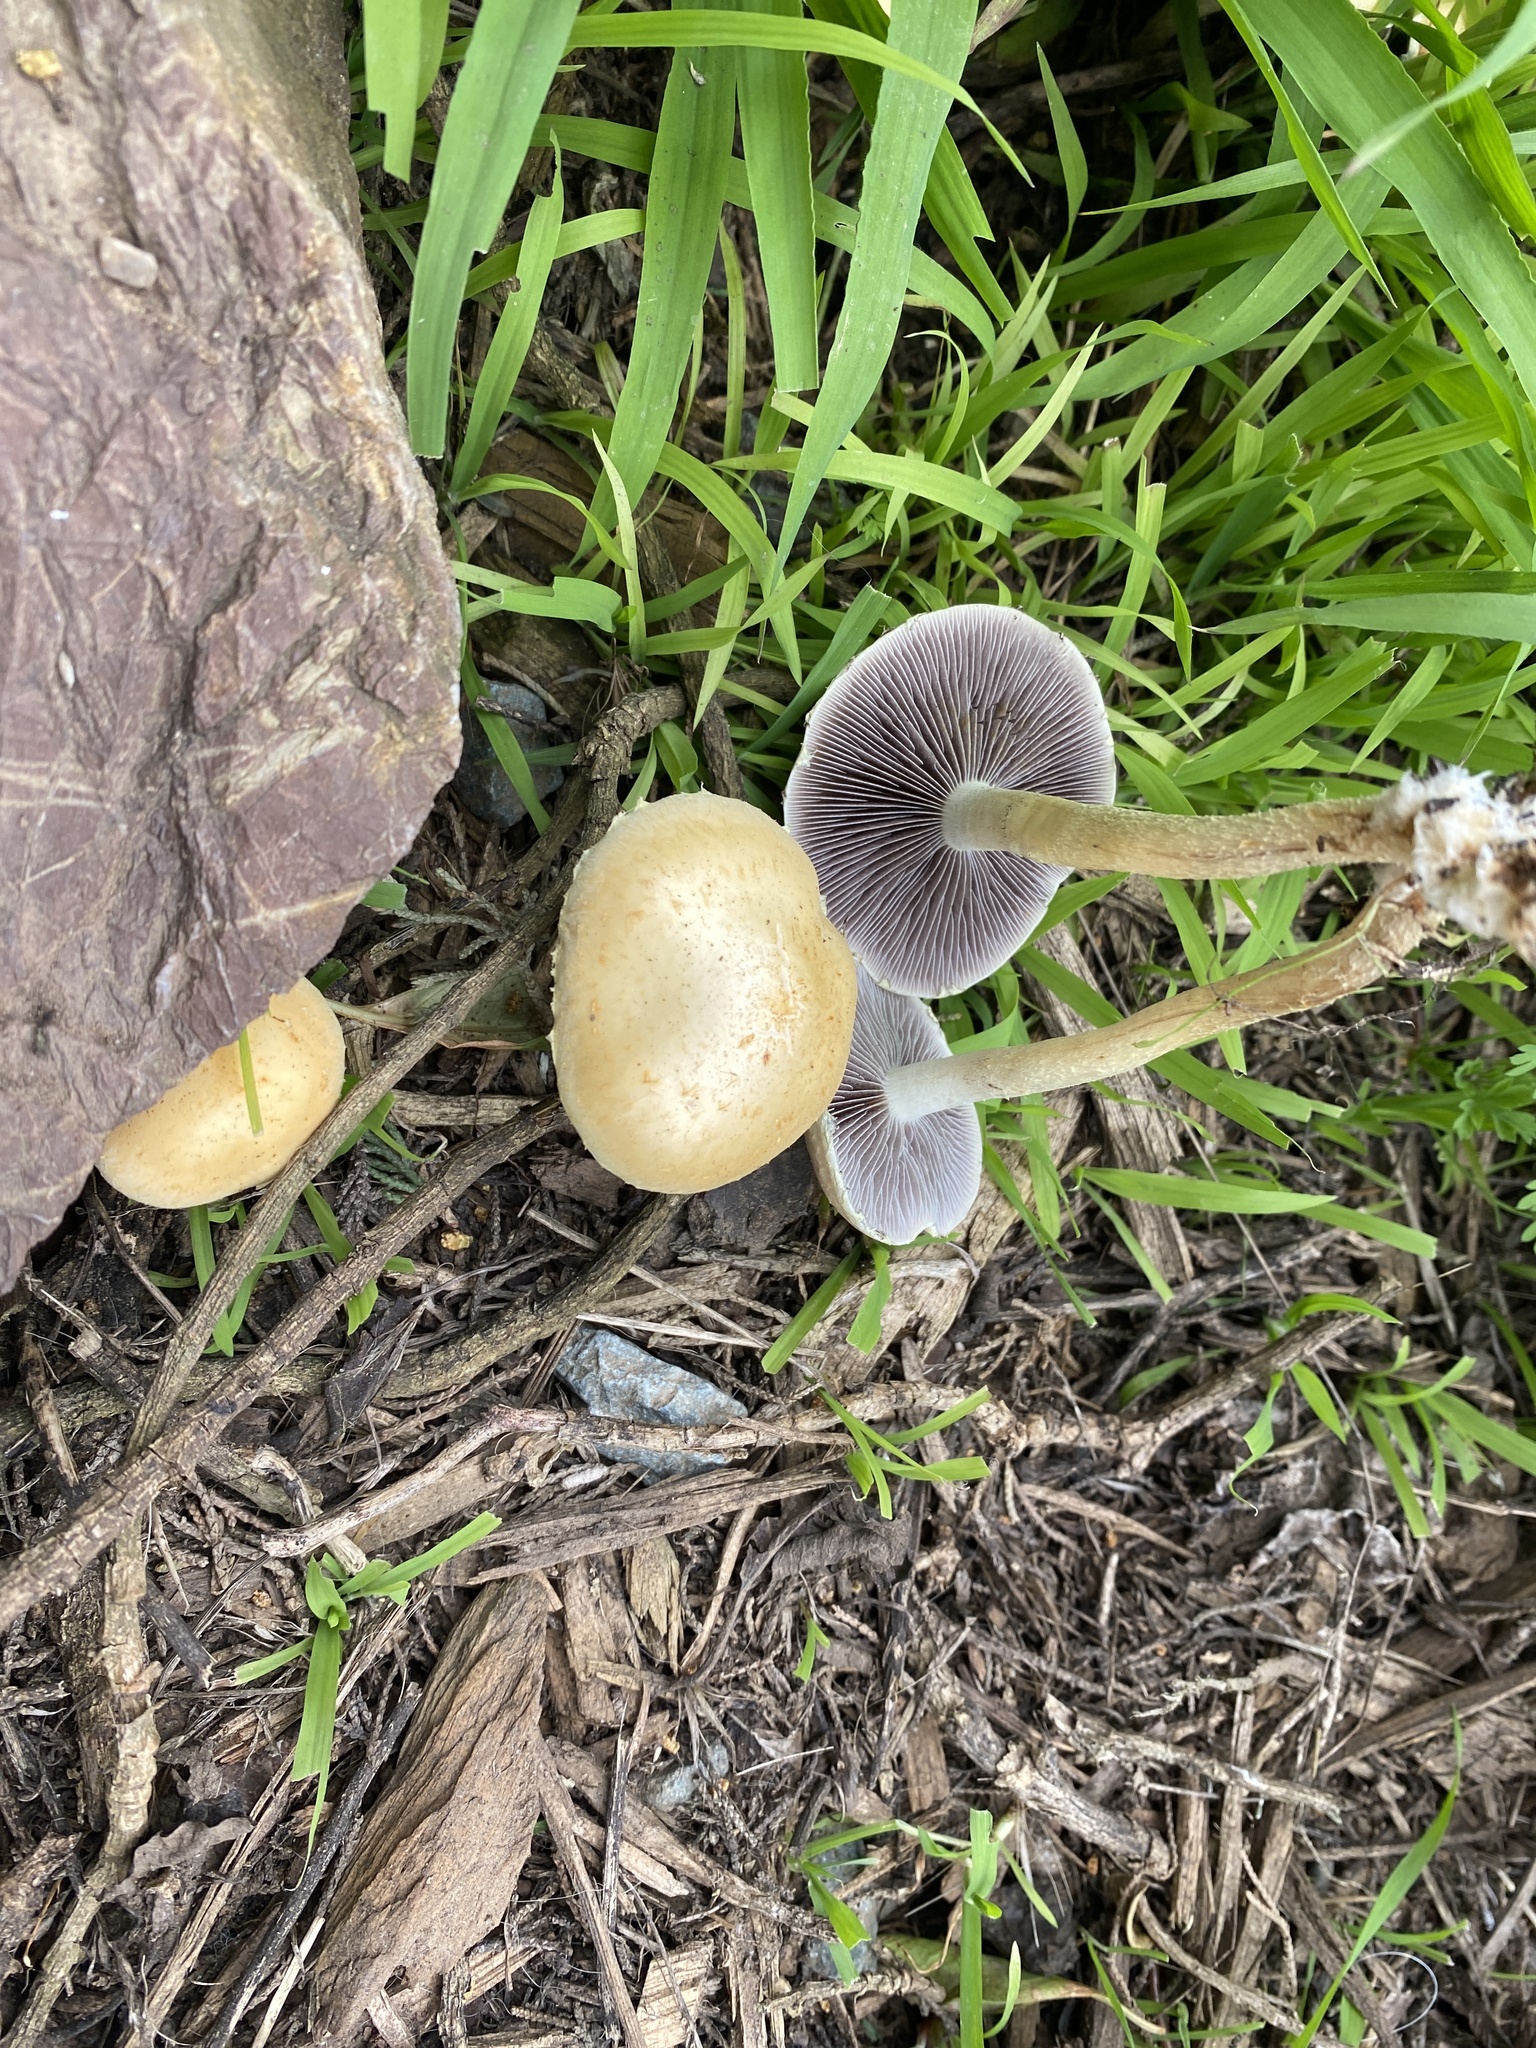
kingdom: Fungi
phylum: Basidiomycota
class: Agaricomycetes
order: Agaricales
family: Strophariaceae
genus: Leratiomyces
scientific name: Leratiomyces percevalii
